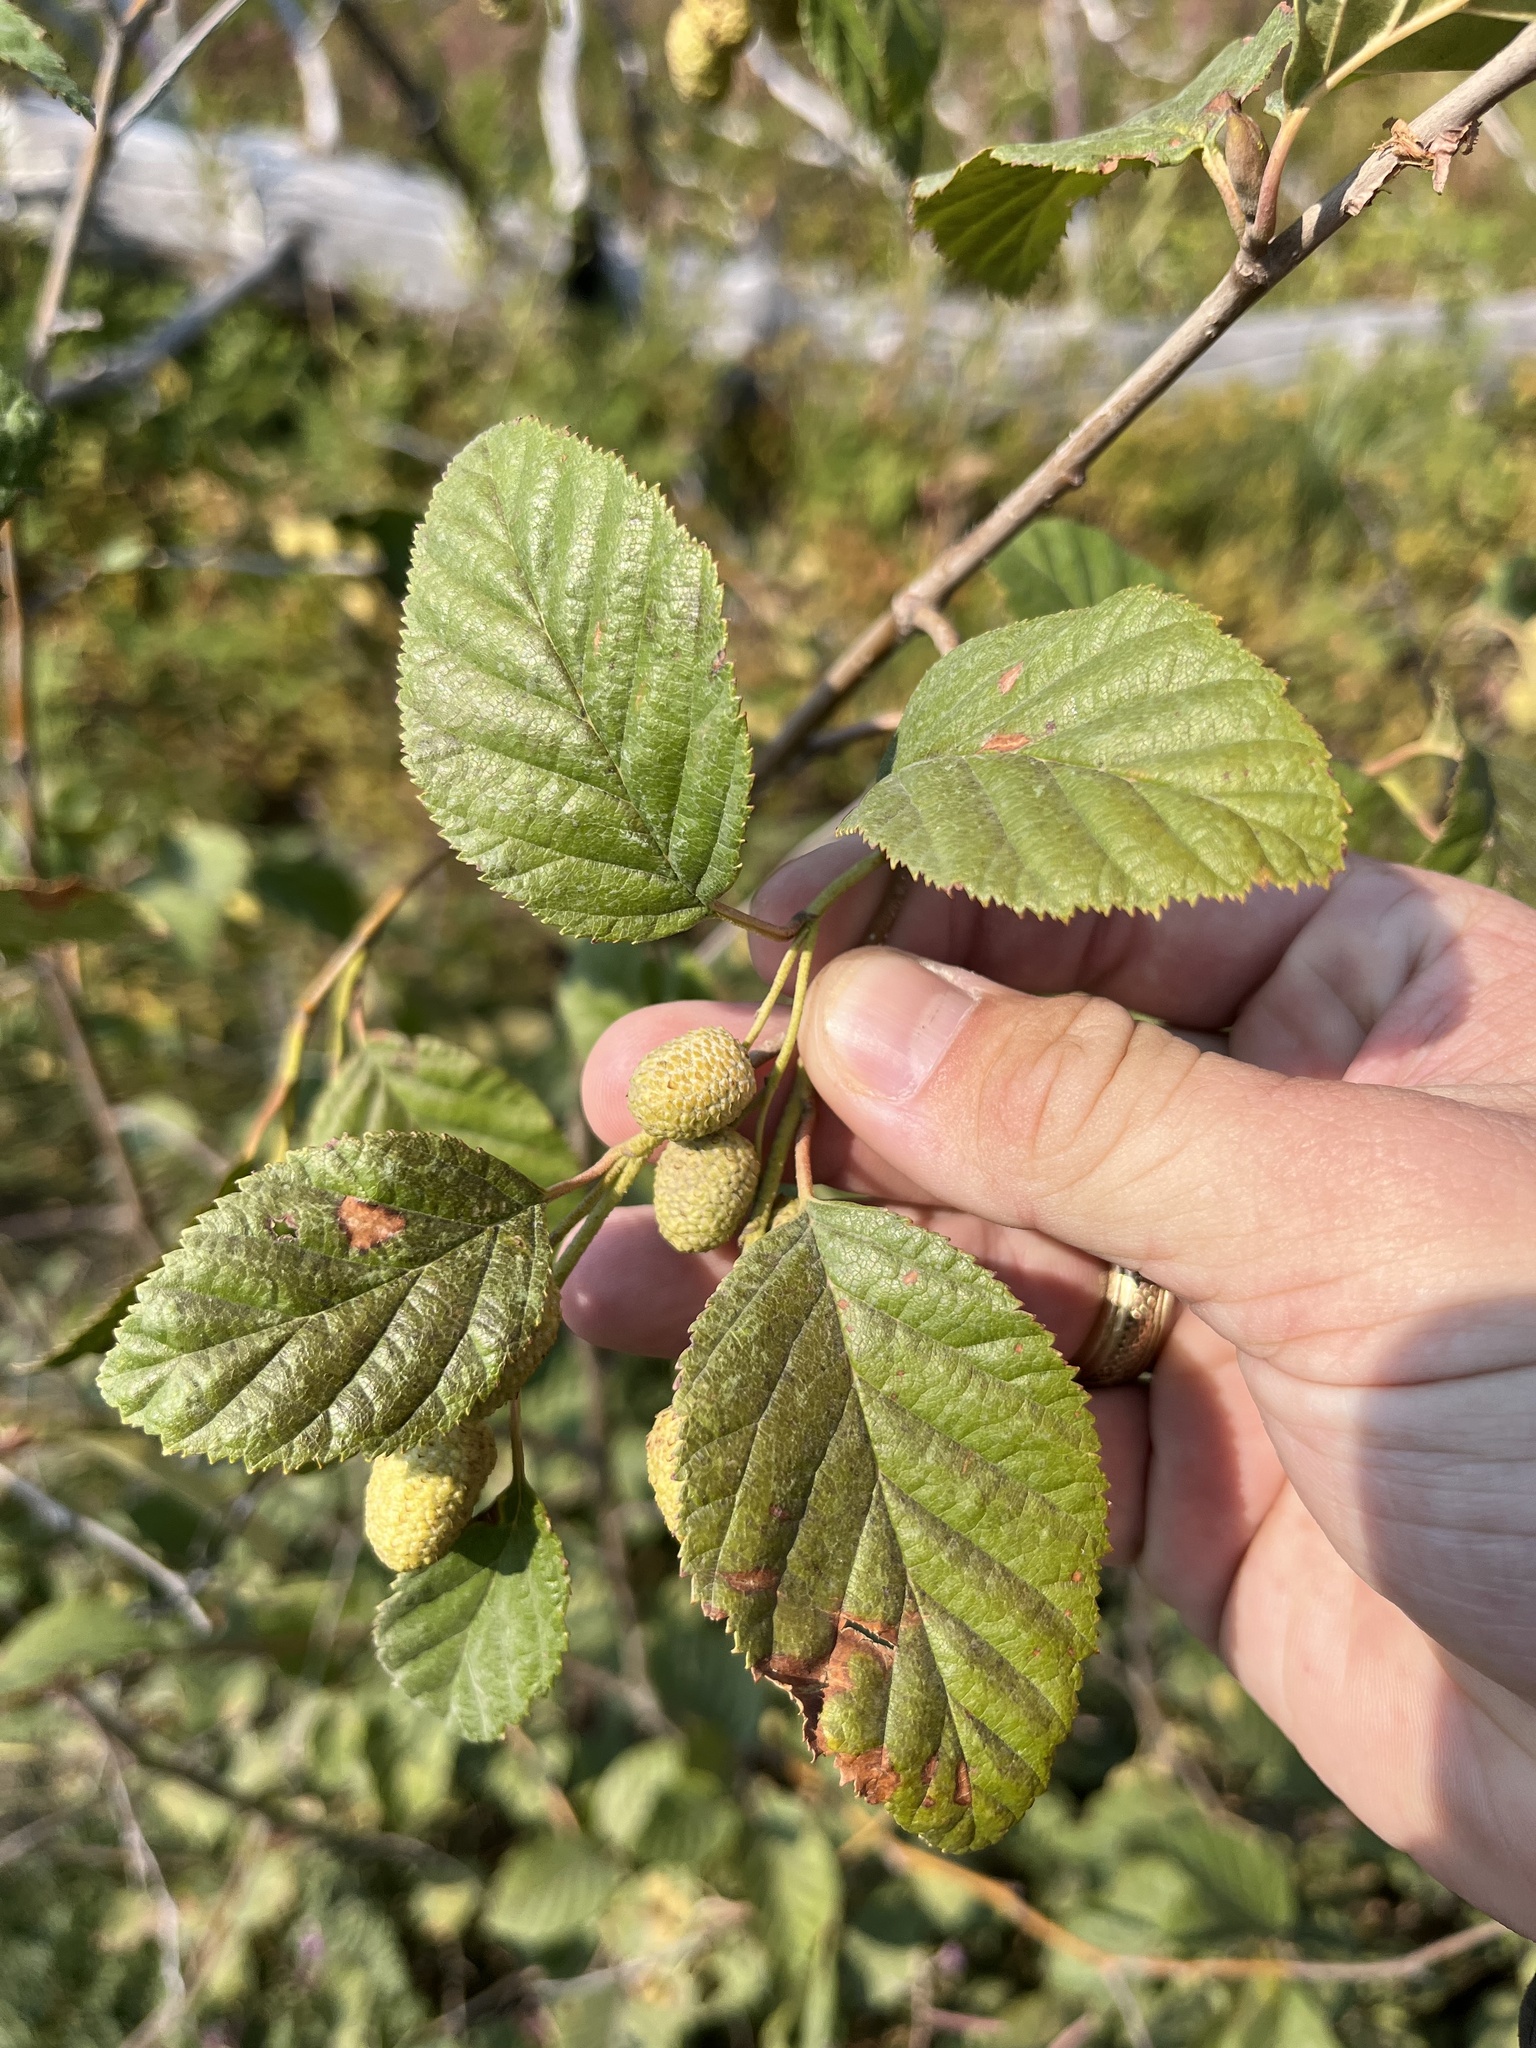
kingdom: Plantae
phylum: Tracheophyta
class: Magnoliopsida
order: Fagales
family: Betulaceae
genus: Alnus
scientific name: Alnus alnobetula
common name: Green alder
